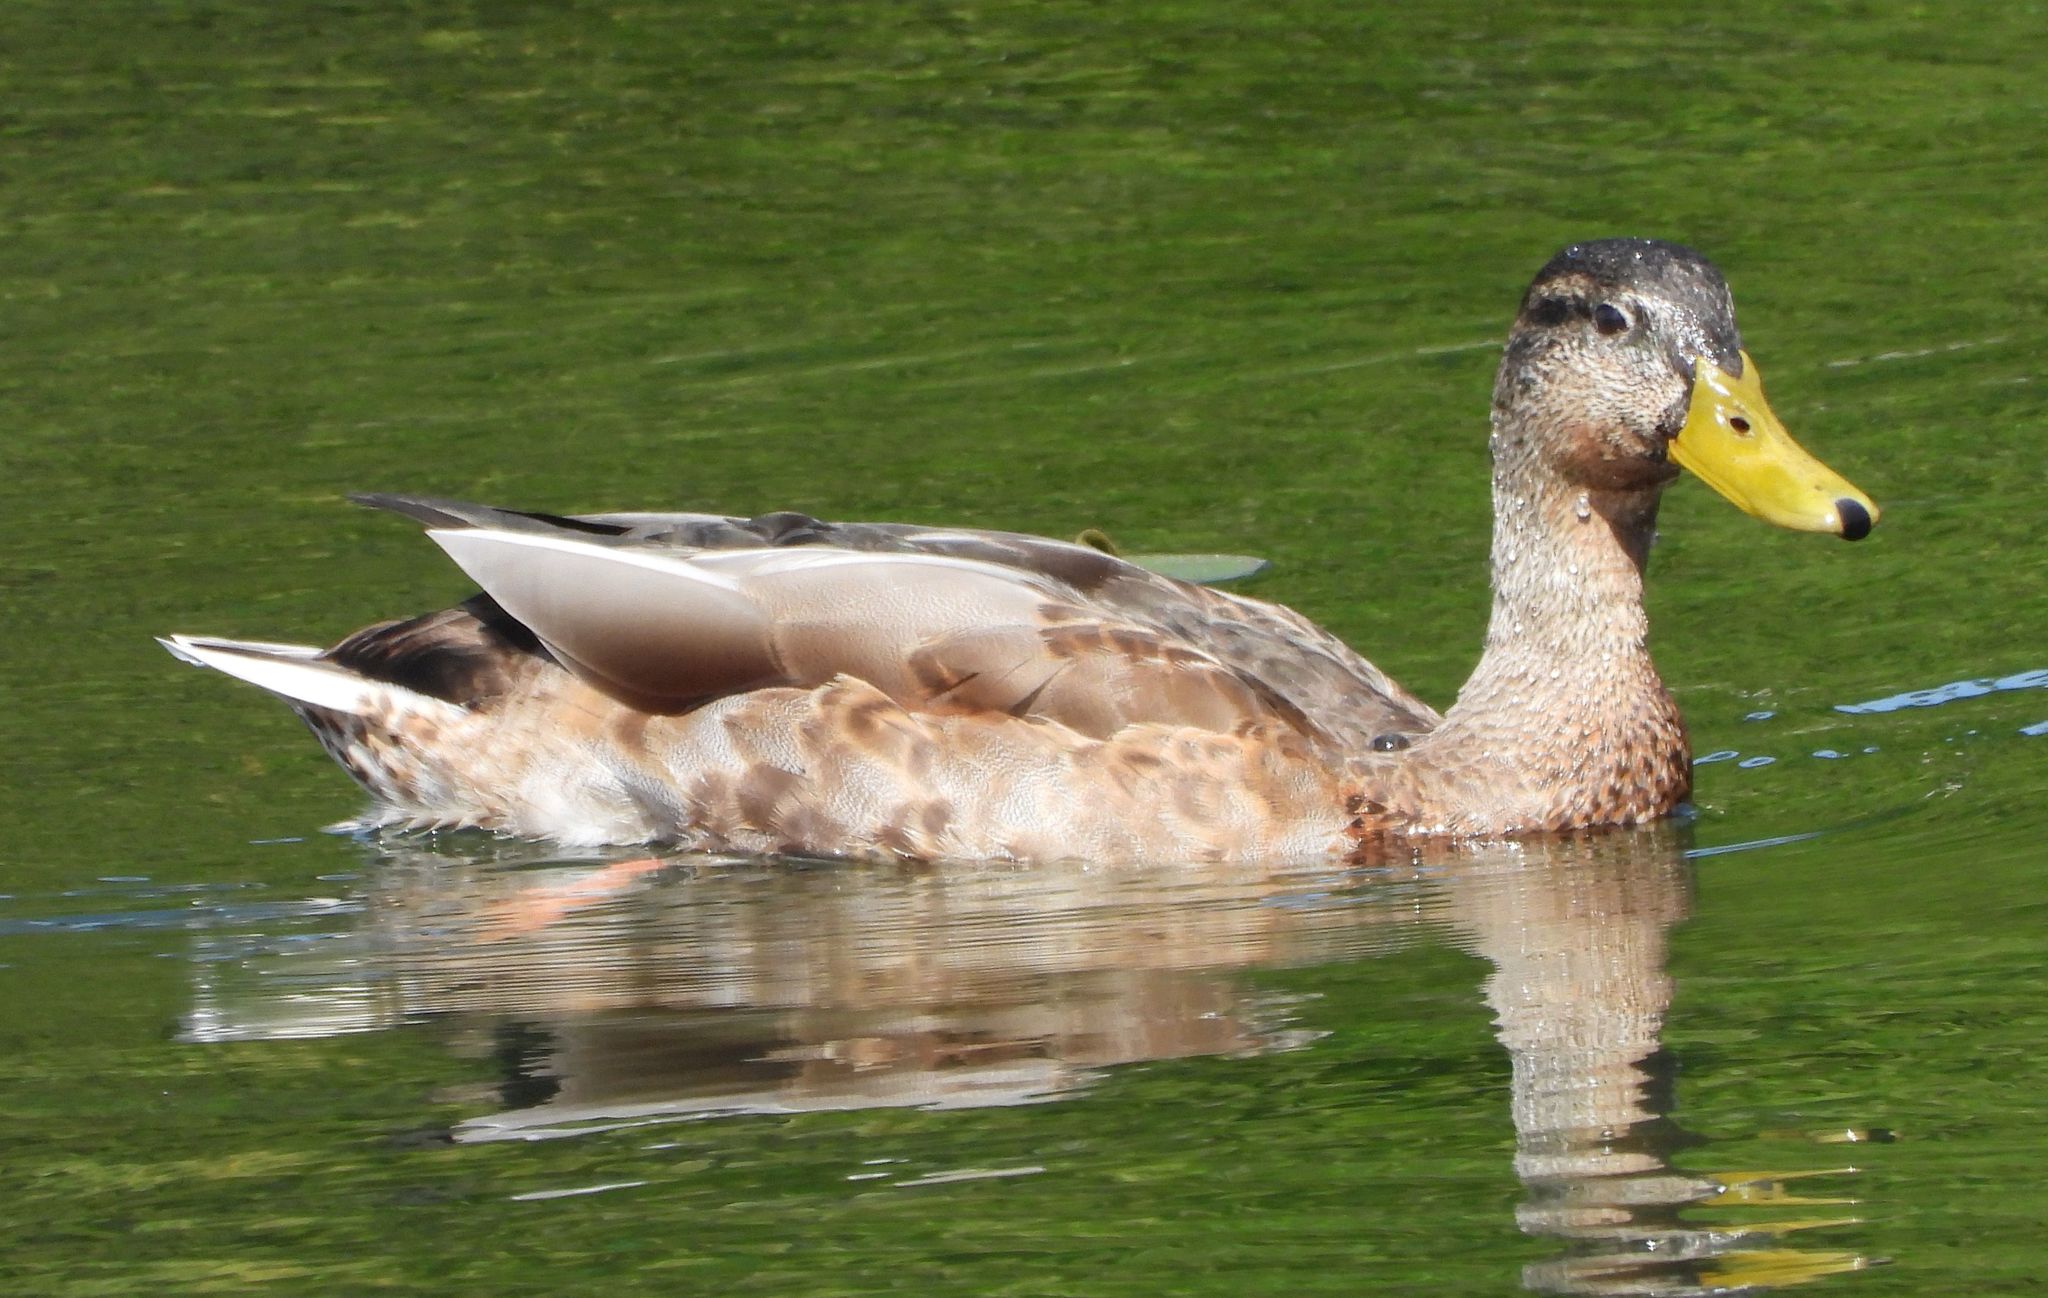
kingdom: Animalia
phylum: Chordata
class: Aves
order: Anseriformes
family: Anatidae
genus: Anas
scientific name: Anas platyrhynchos
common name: Mallard
